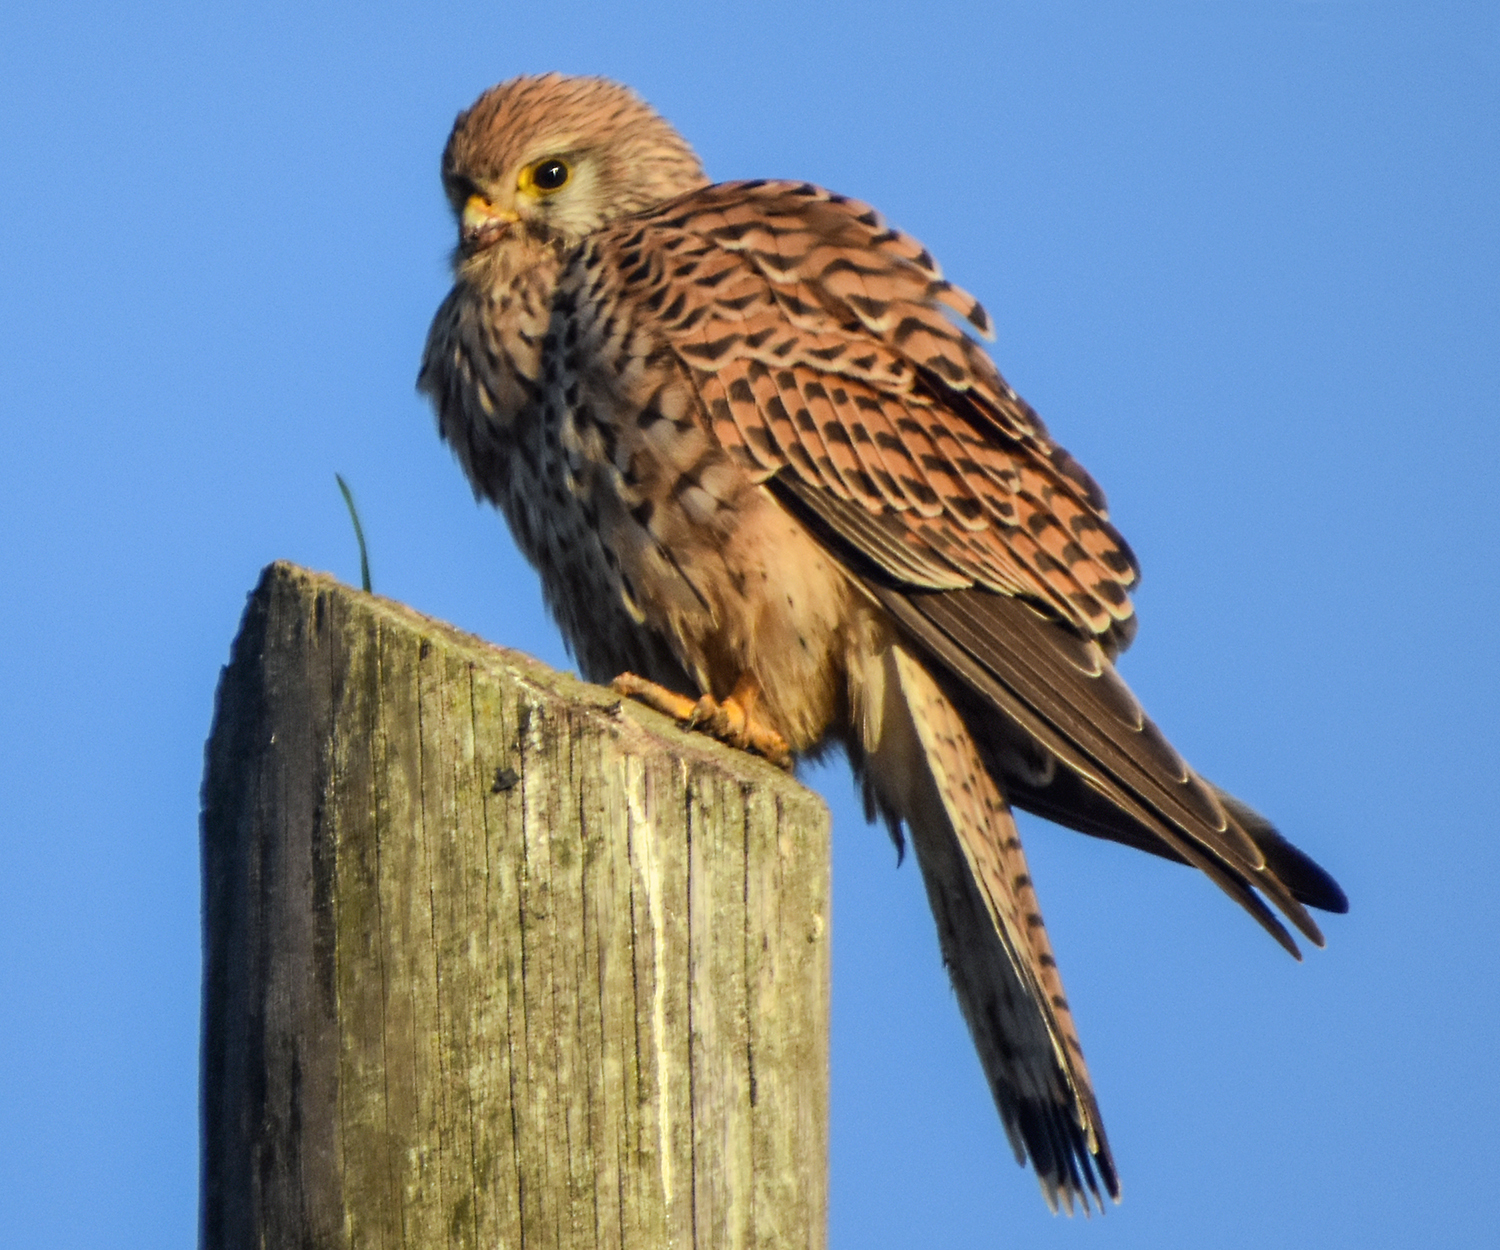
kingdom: Animalia
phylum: Chordata
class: Aves
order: Falconiformes
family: Falconidae
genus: Falco
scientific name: Falco tinnunculus
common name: Common kestrel
